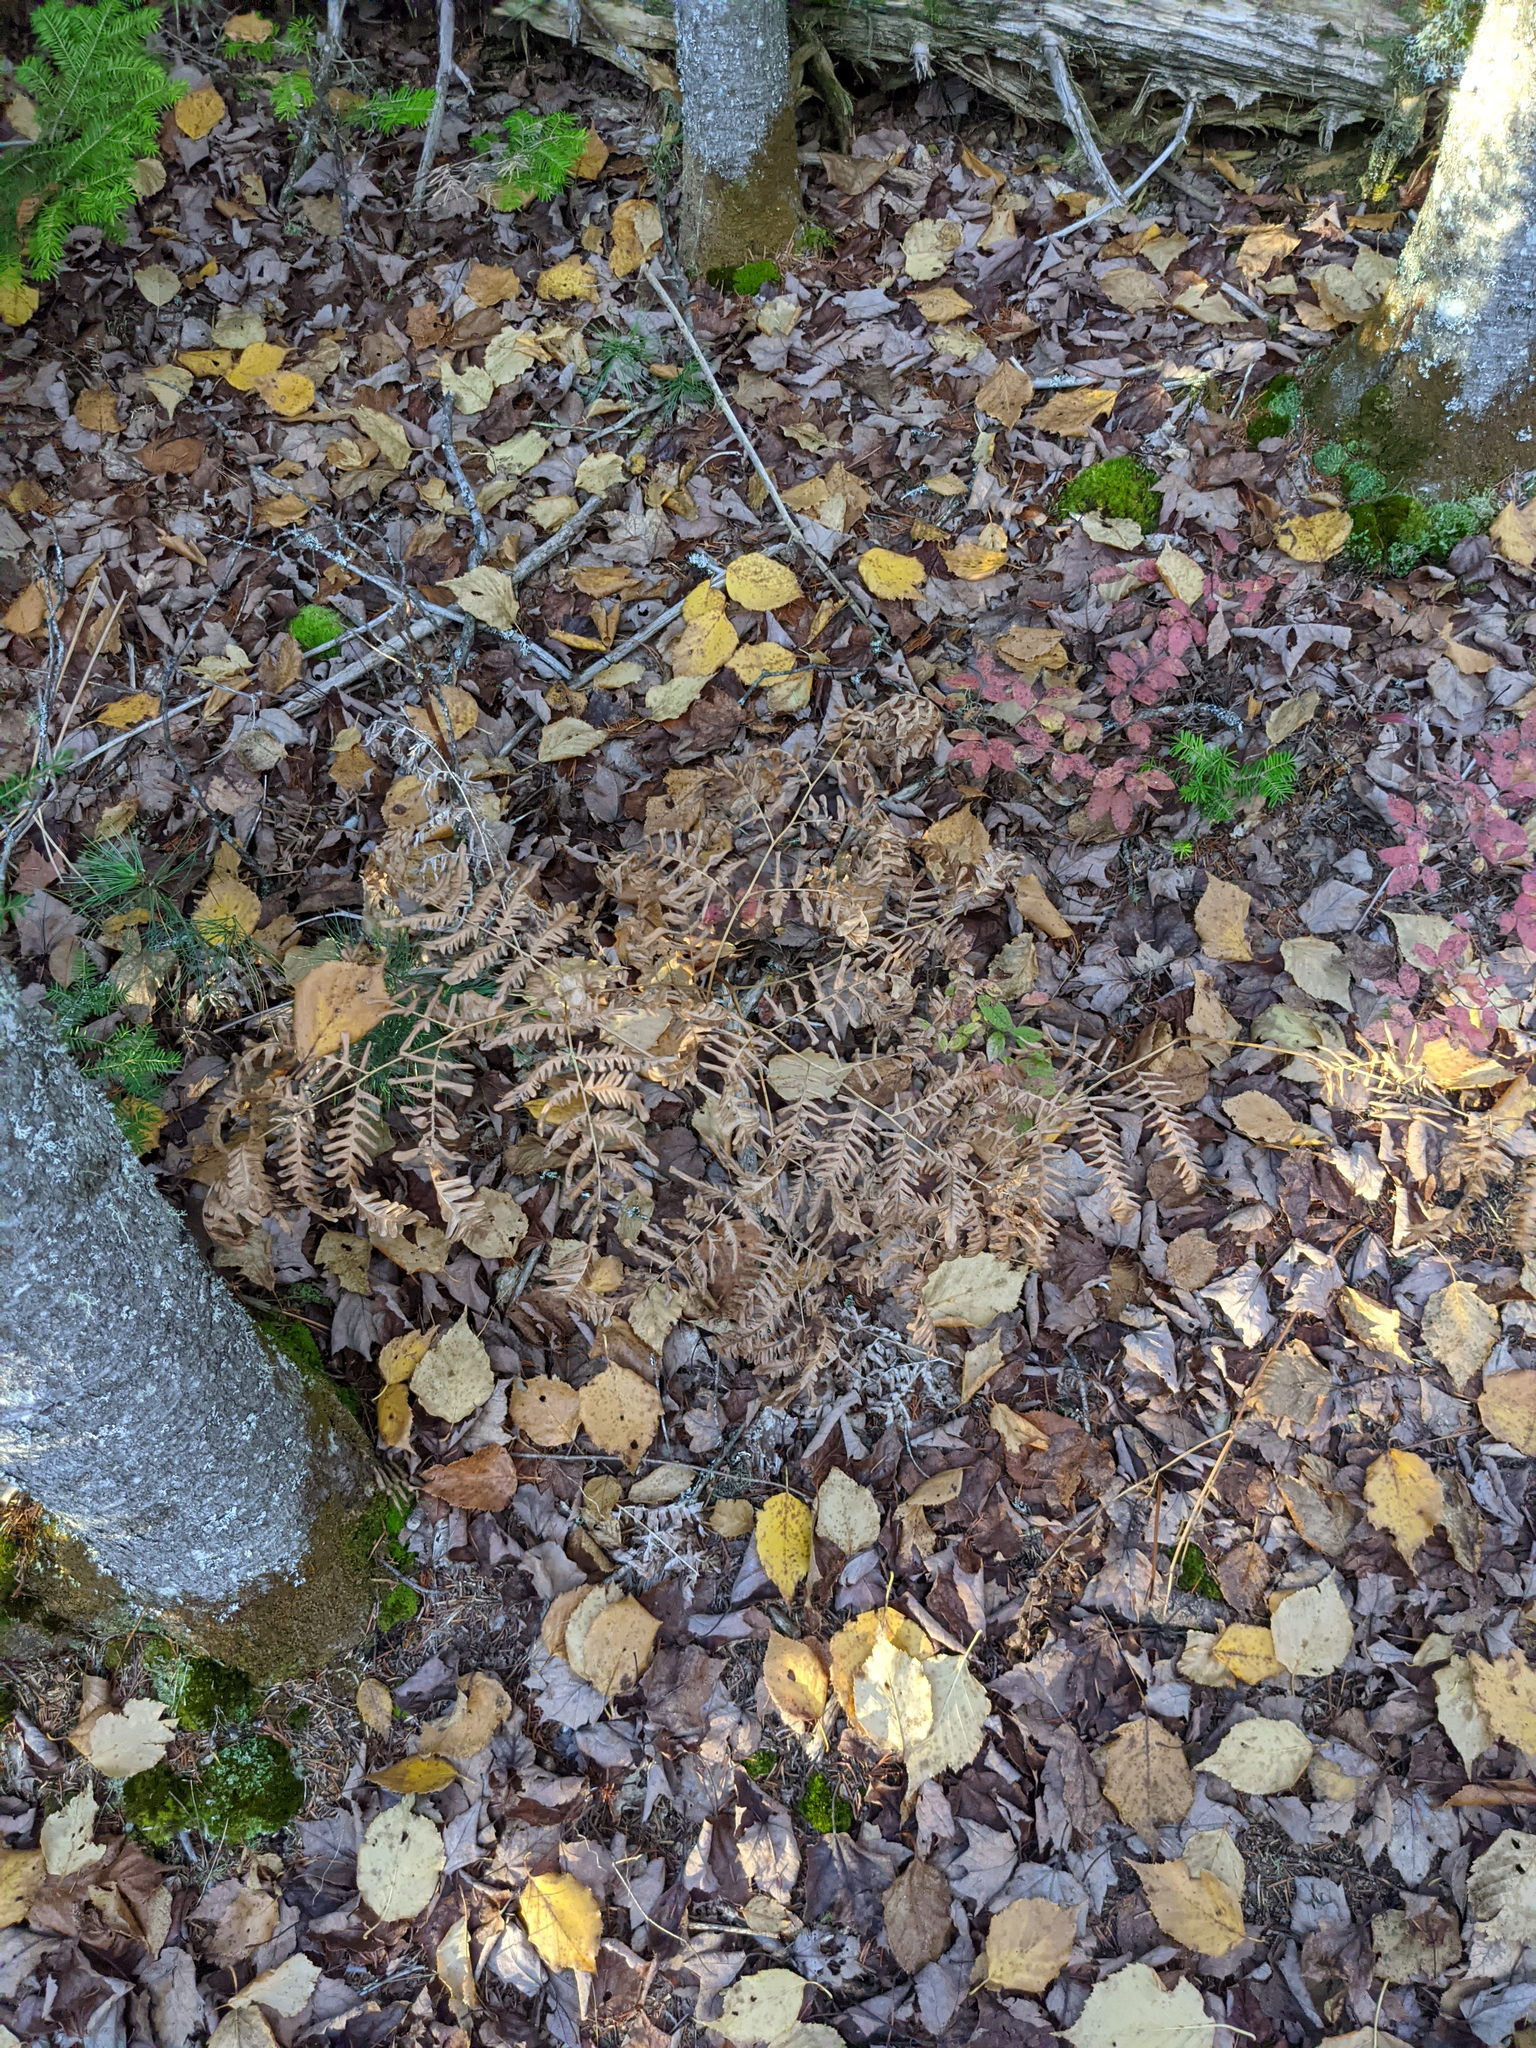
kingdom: Plantae
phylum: Tracheophyta
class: Polypodiopsida
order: Polypodiales
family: Dennstaedtiaceae
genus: Pteridium
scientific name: Pteridium aquilinum
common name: Bracken
